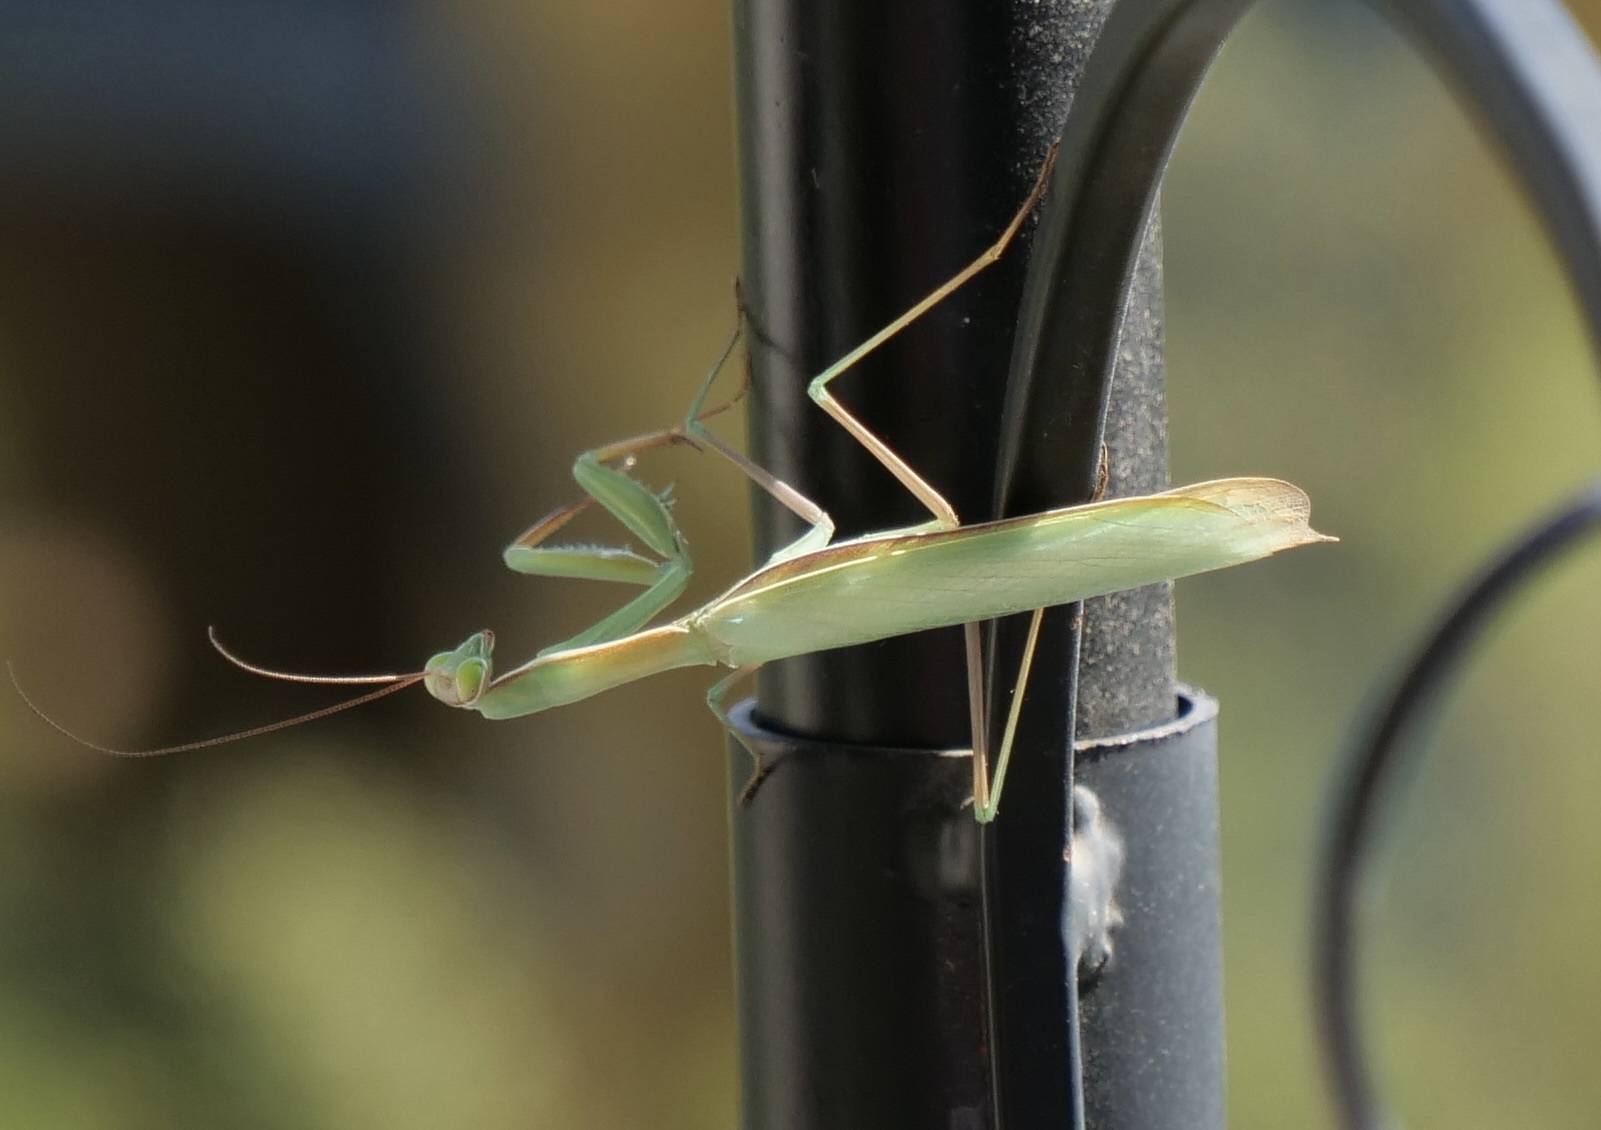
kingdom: Animalia
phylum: Arthropoda
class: Insecta
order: Mantodea
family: Mantidae
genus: Mantis
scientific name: Mantis religiosa
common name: Praying mantis
